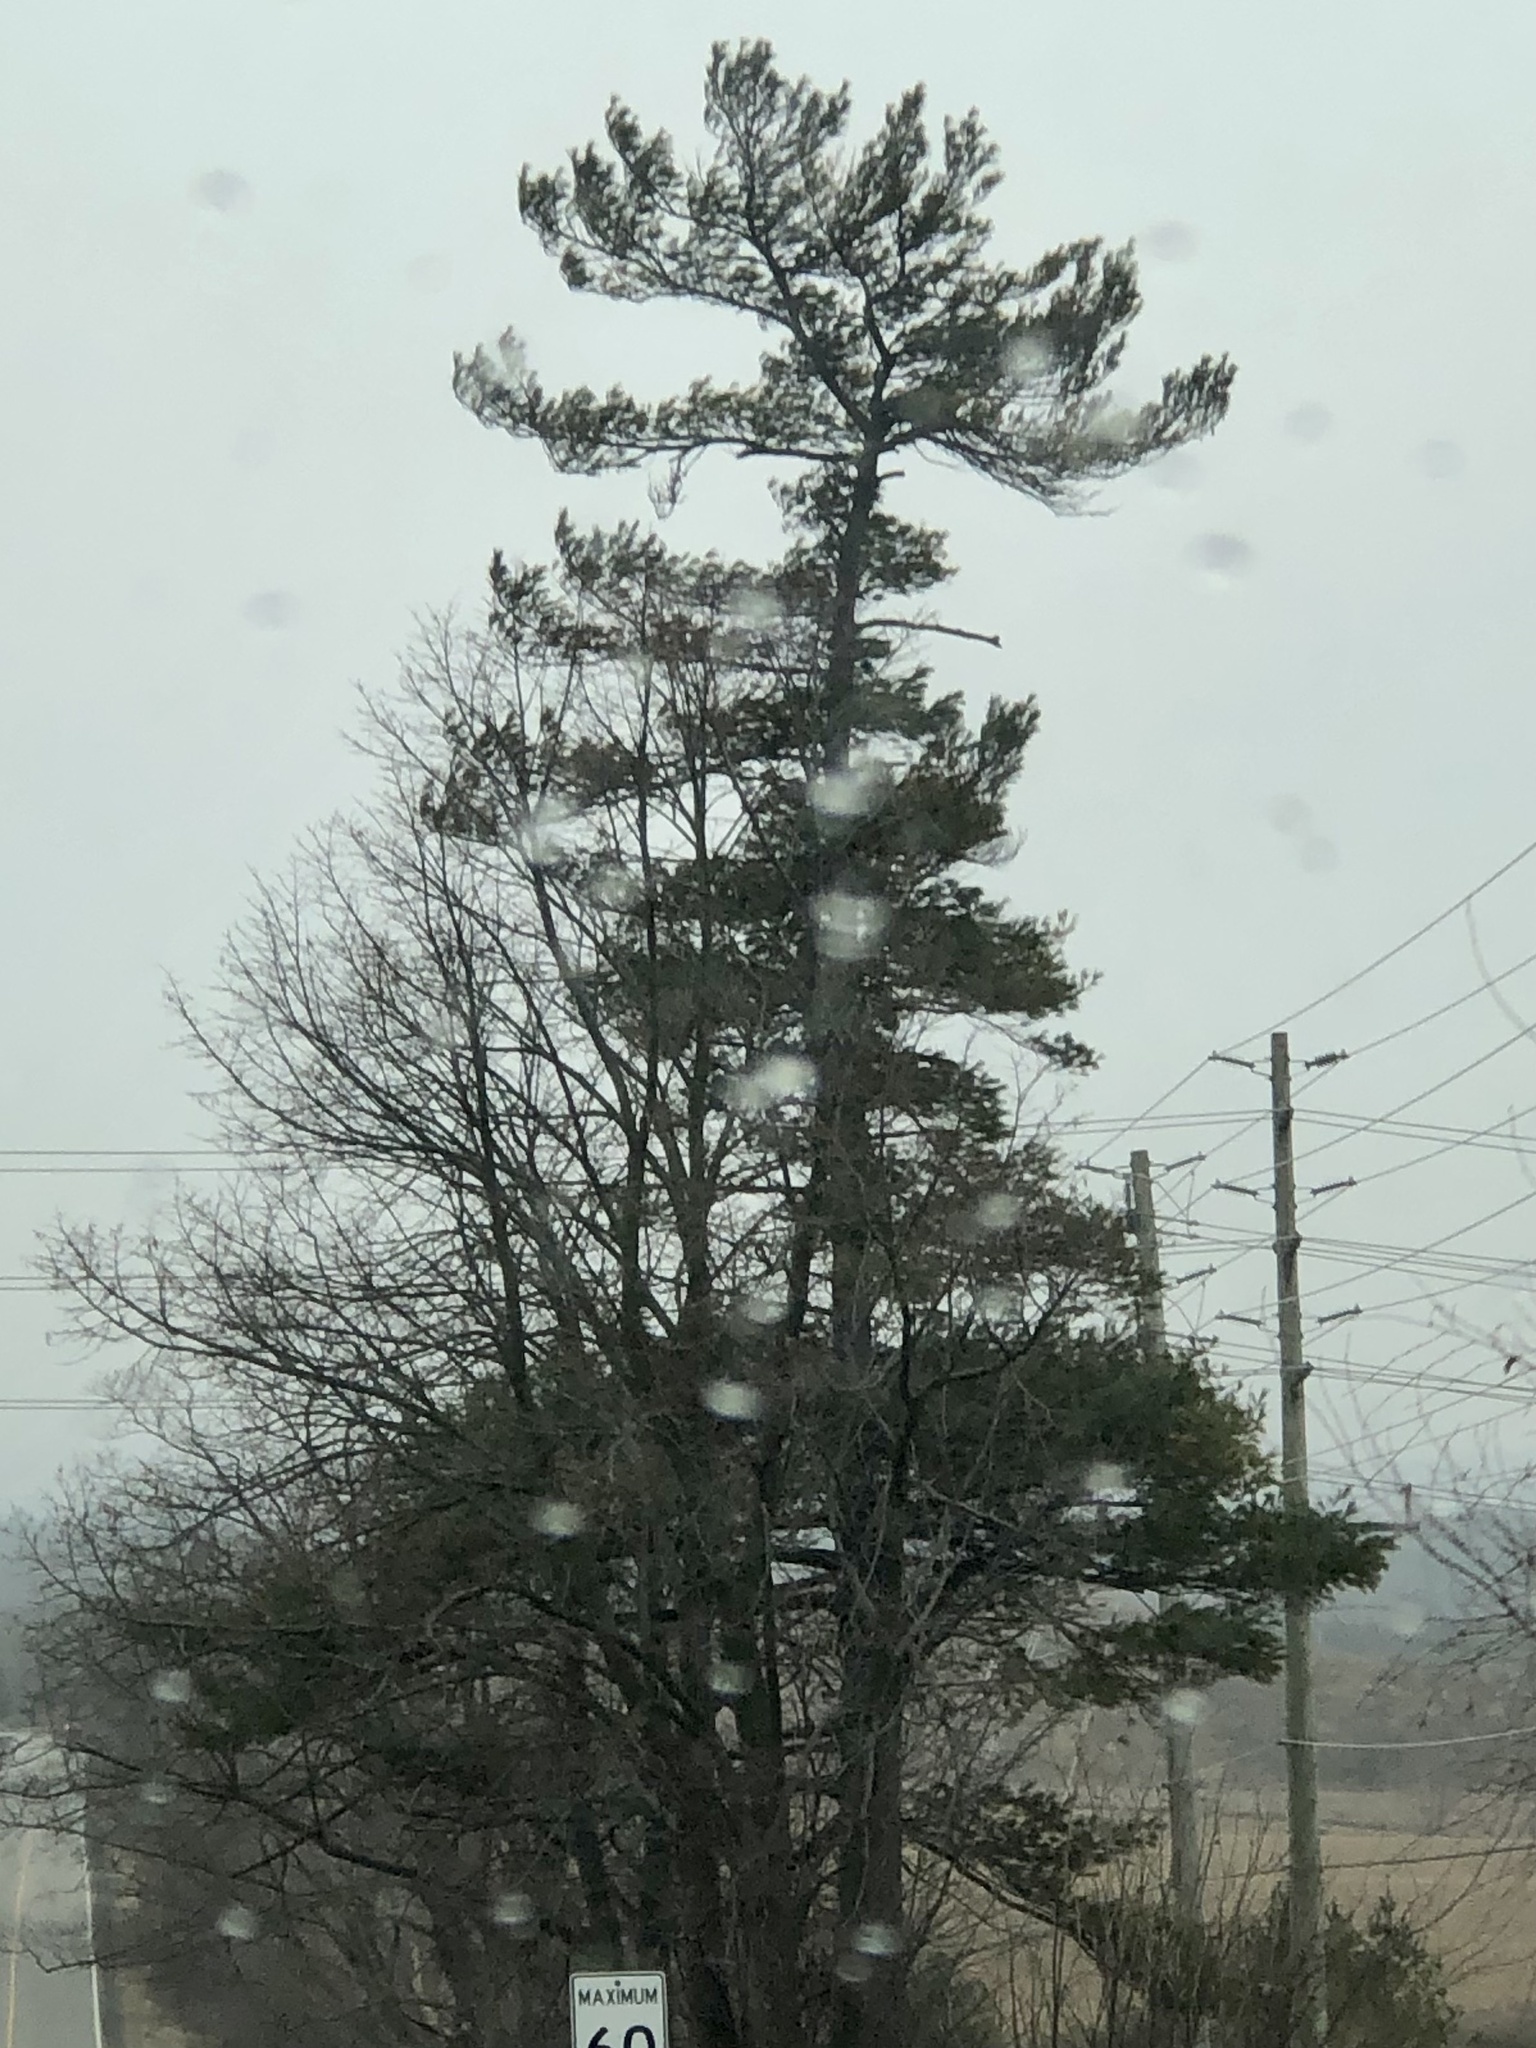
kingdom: Plantae
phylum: Tracheophyta
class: Pinopsida
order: Pinales
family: Pinaceae
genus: Pinus
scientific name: Pinus strobus
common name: Weymouth pine
